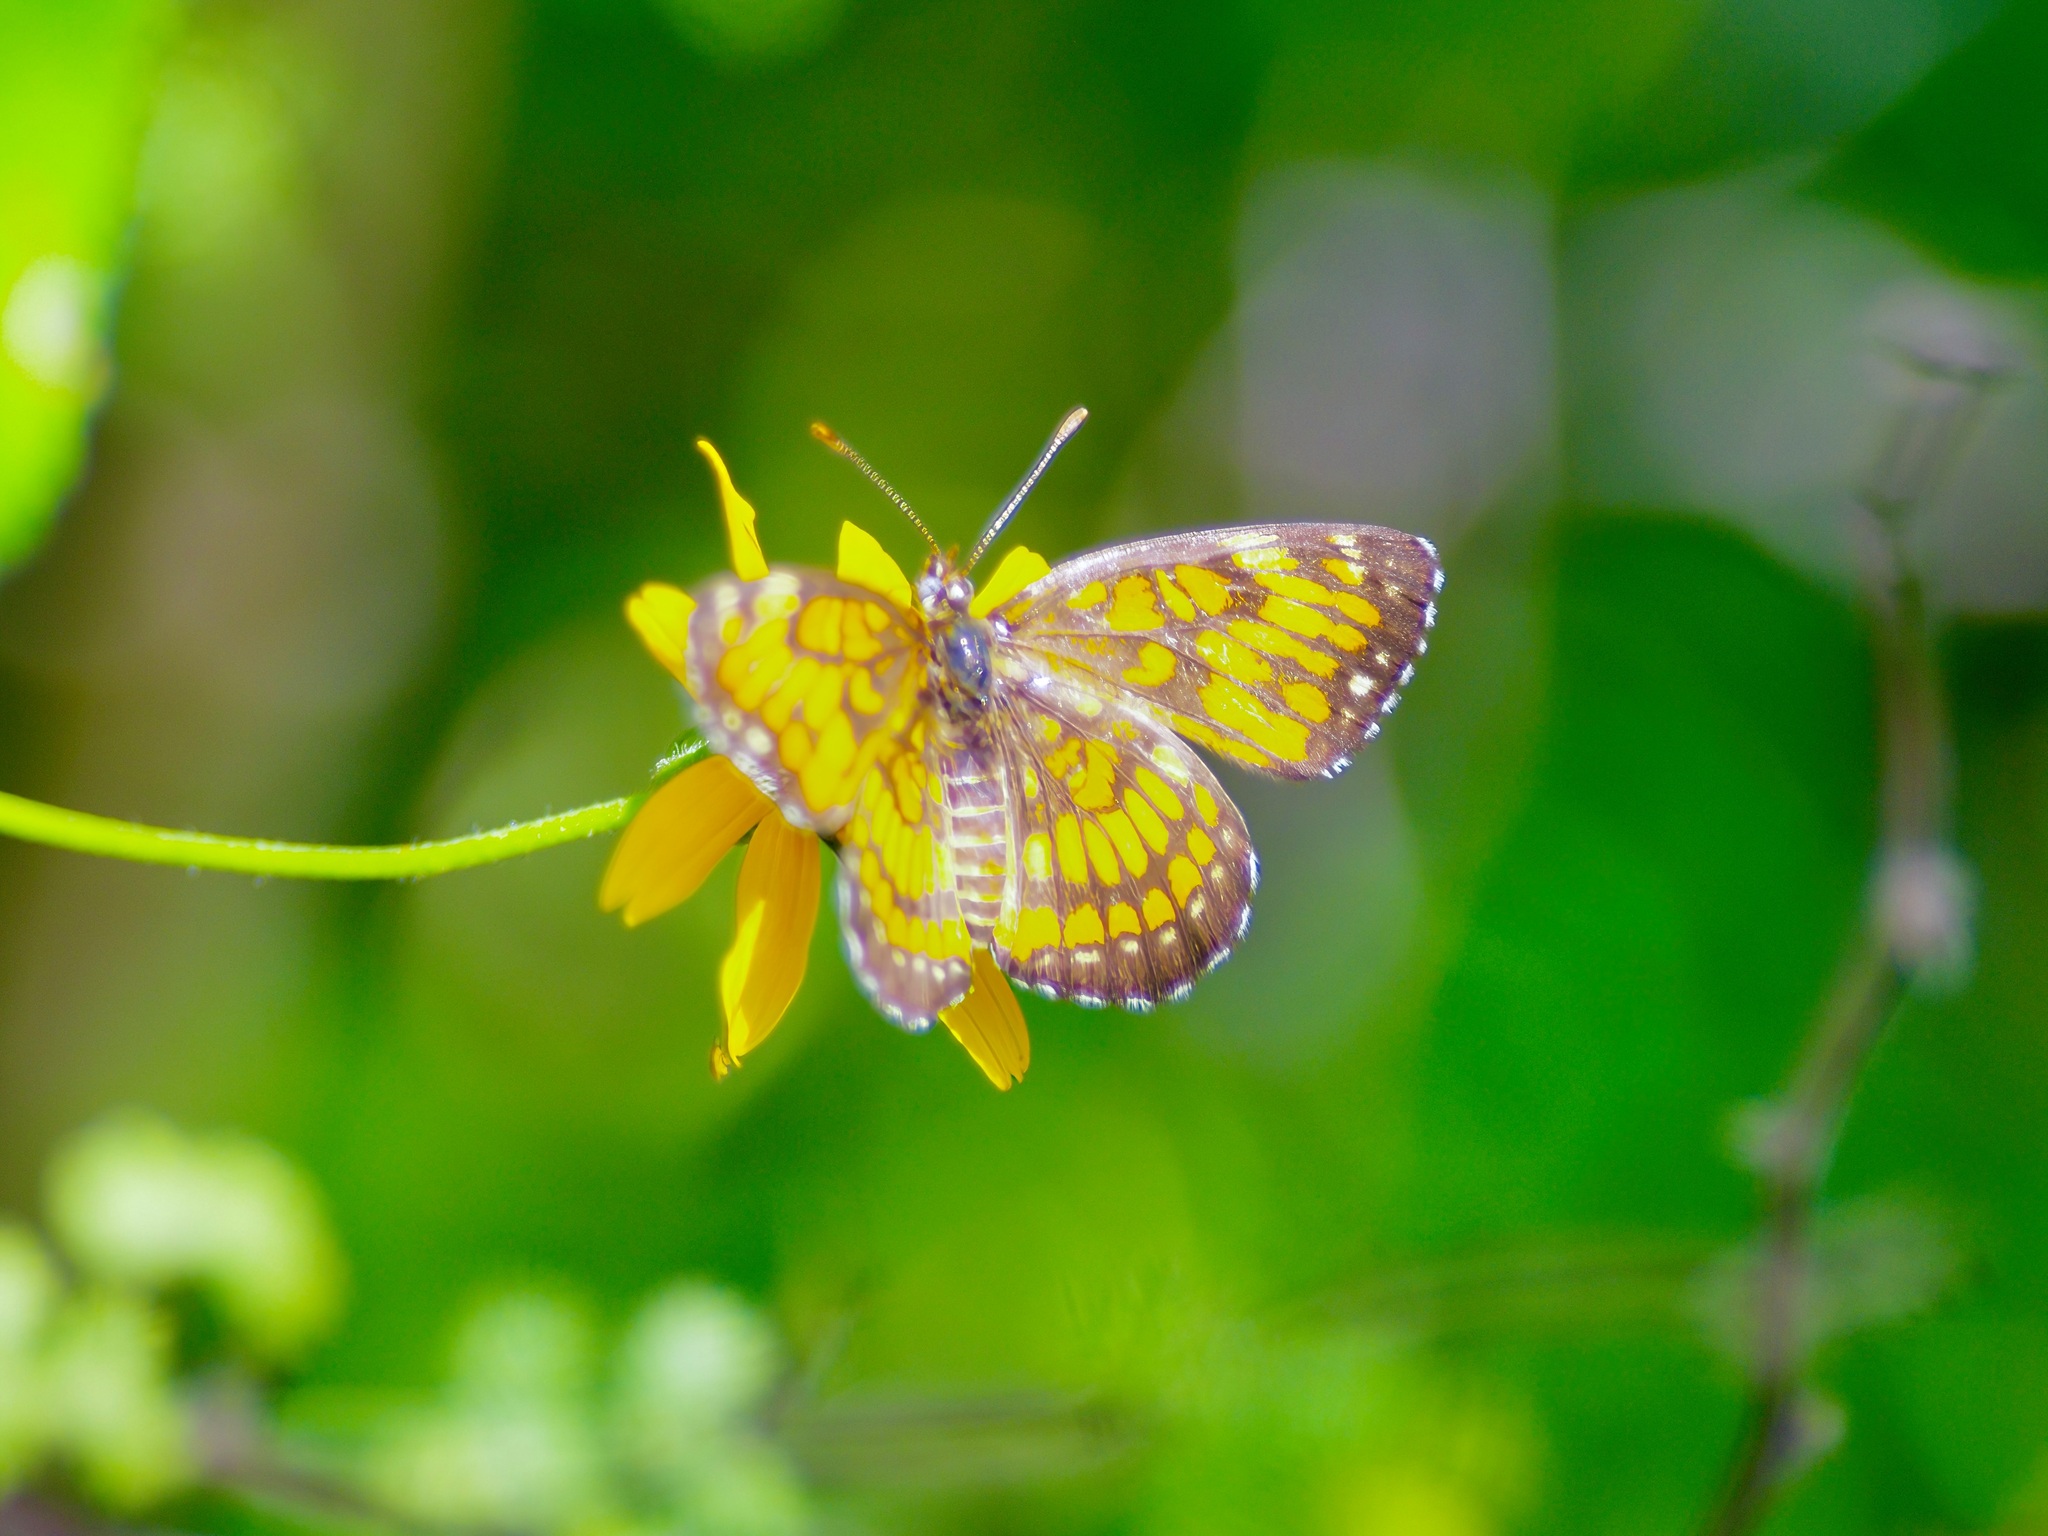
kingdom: Animalia
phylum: Arthropoda
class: Insecta
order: Lepidoptera
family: Nymphalidae
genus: Thessalia
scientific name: Thessalia theona
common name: Nymphalid moth
